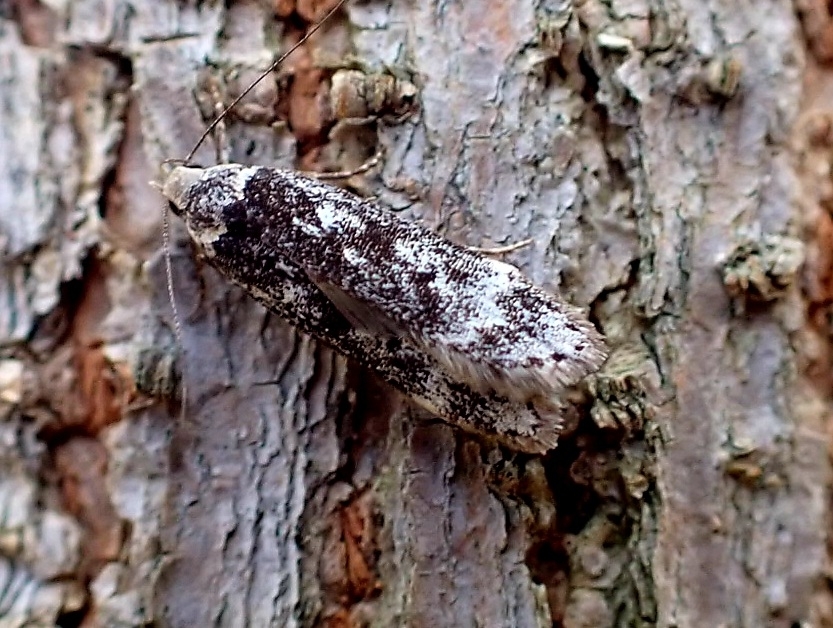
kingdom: Animalia
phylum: Arthropoda
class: Insecta
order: Lepidoptera
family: Gelechiidae
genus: Anacampsis
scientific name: Anacampsis blattariella
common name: Birch sober
